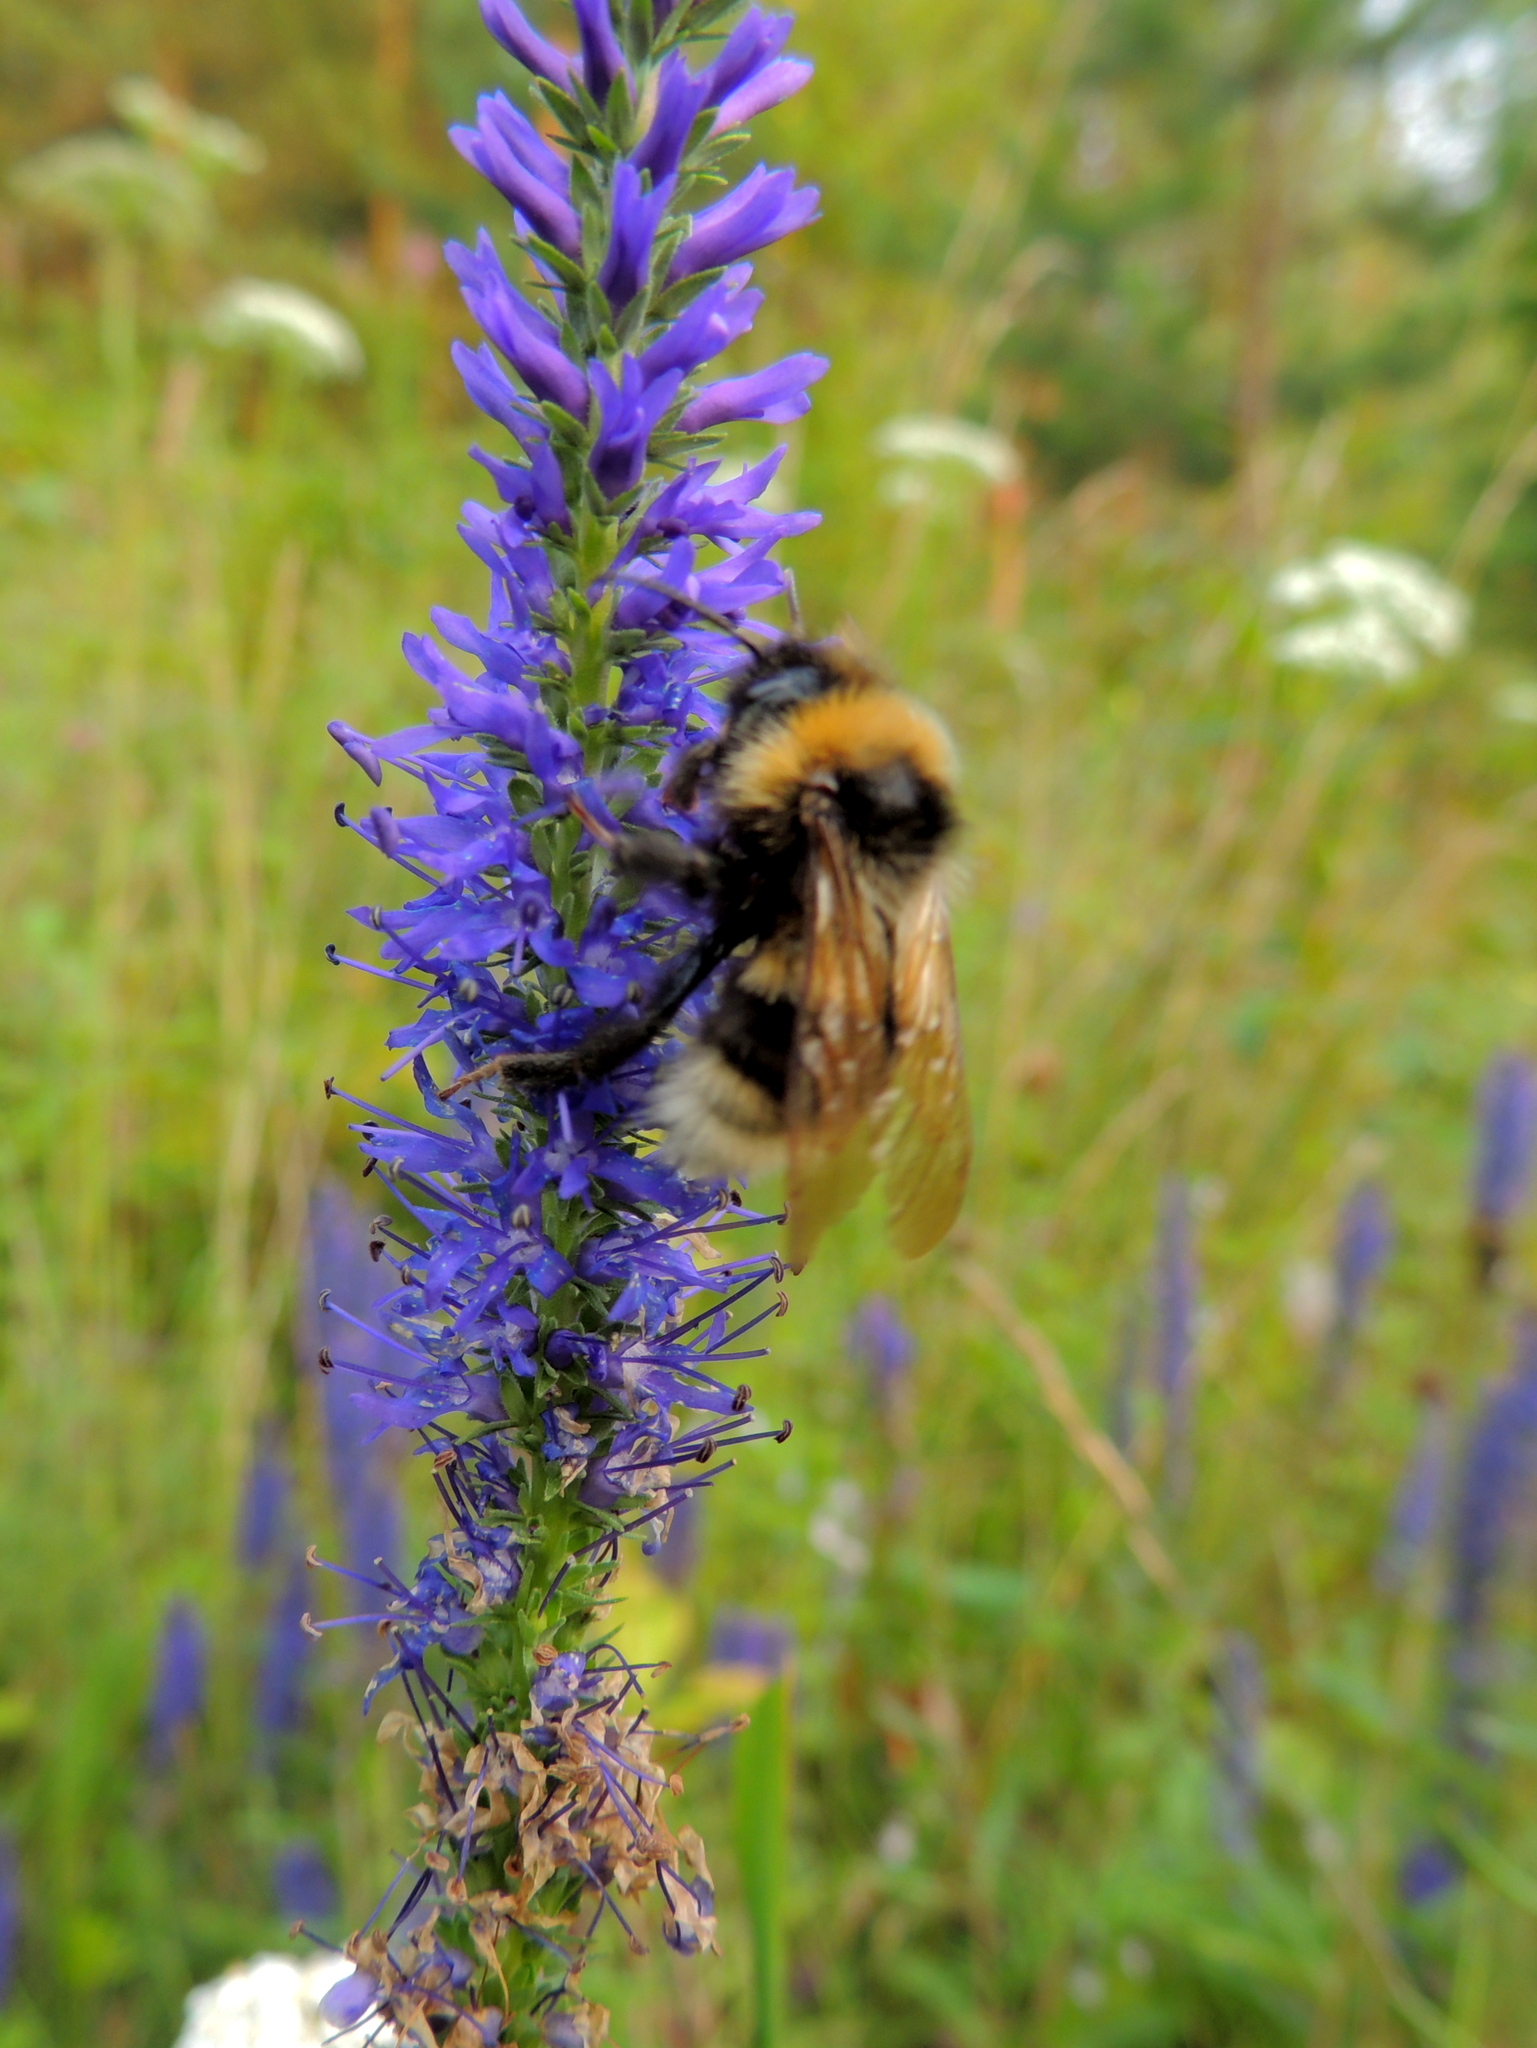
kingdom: Plantae
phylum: Tracheophyta
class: Magnoliopsida
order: Lamiales
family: Plantaginaceae
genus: Veronica
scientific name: Veronica longifolia
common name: Garden speedwell
